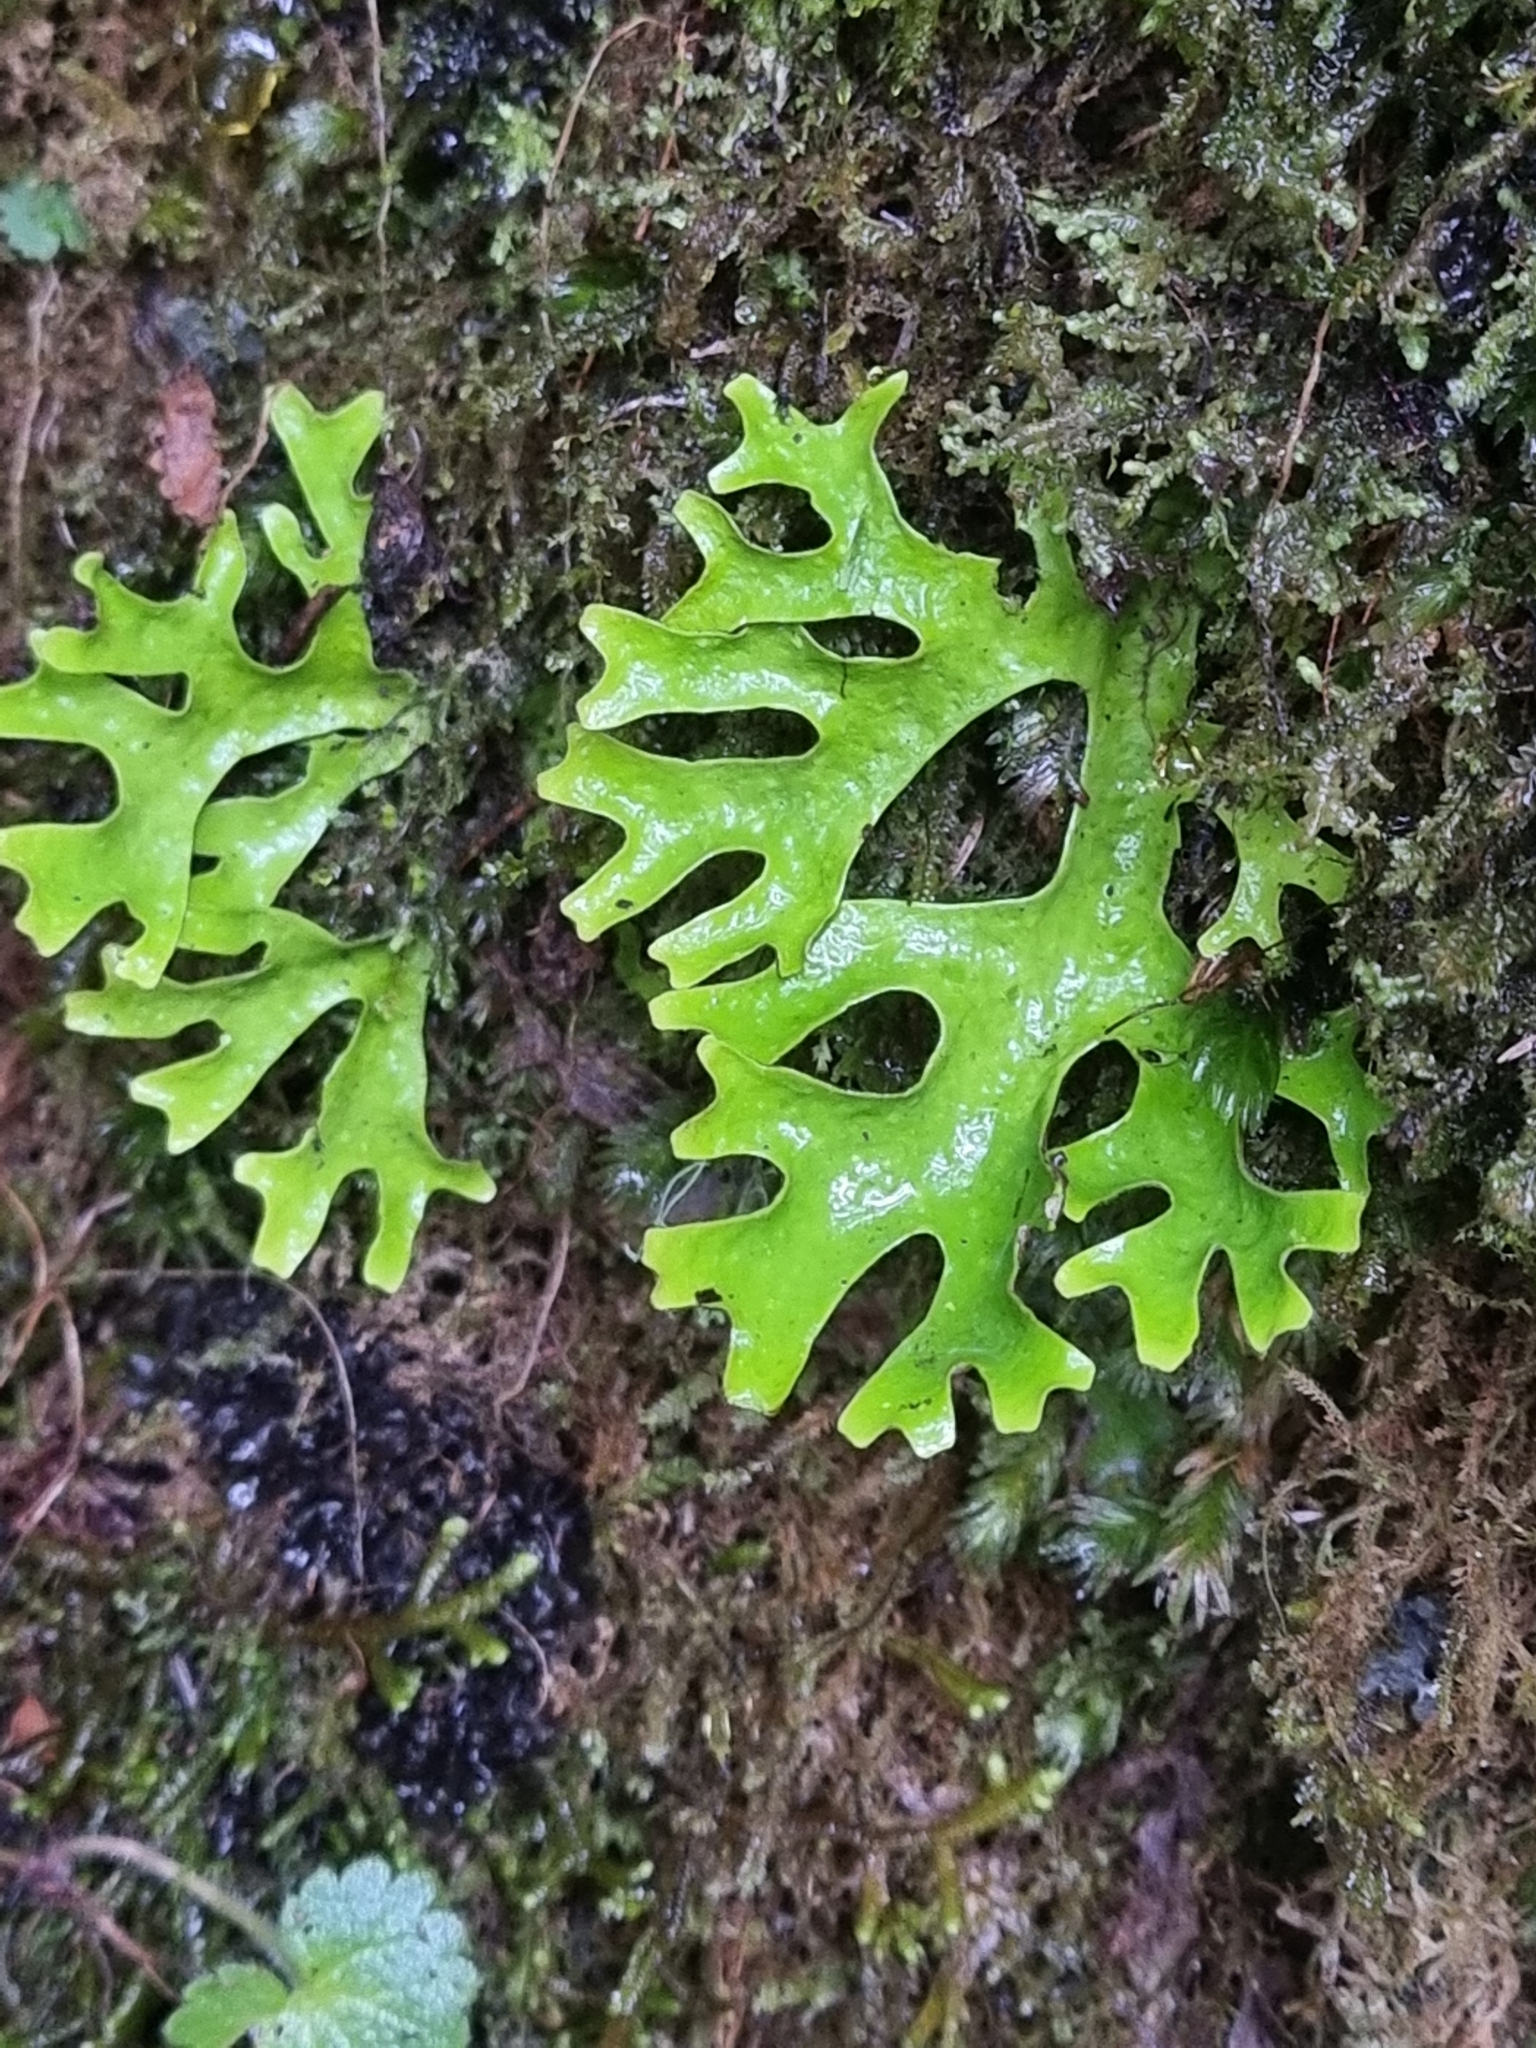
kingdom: Fungi
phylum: Ascomycota
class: Lecanoromycetes
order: Peltigerales
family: Lobariaceae
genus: Sticta
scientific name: Sticta canariensis
